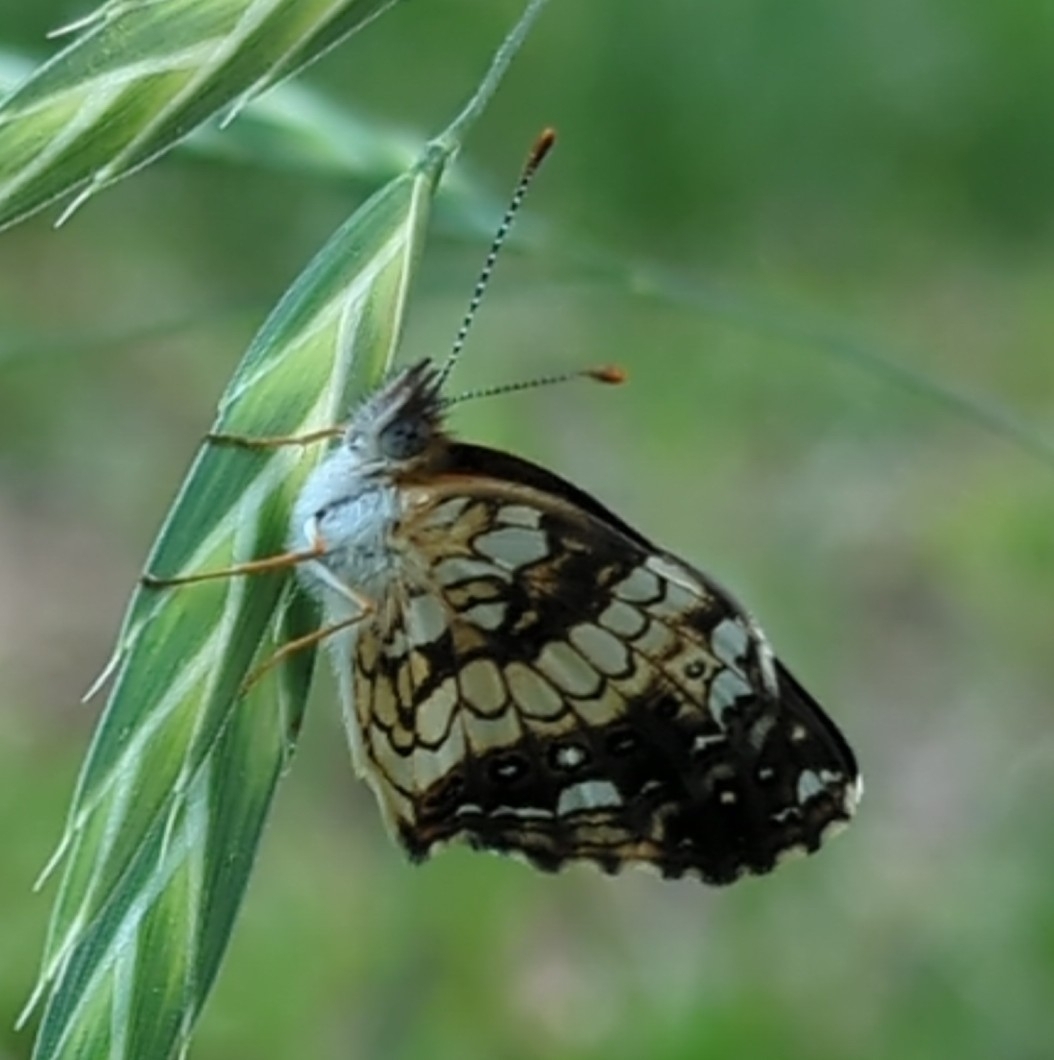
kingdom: Animalia
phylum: Arthropoda
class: Insecta
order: Lepidoptera
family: Nymphalidae
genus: Chlosyne
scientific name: Chlosyne nycteis
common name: Silvery checkerspot
